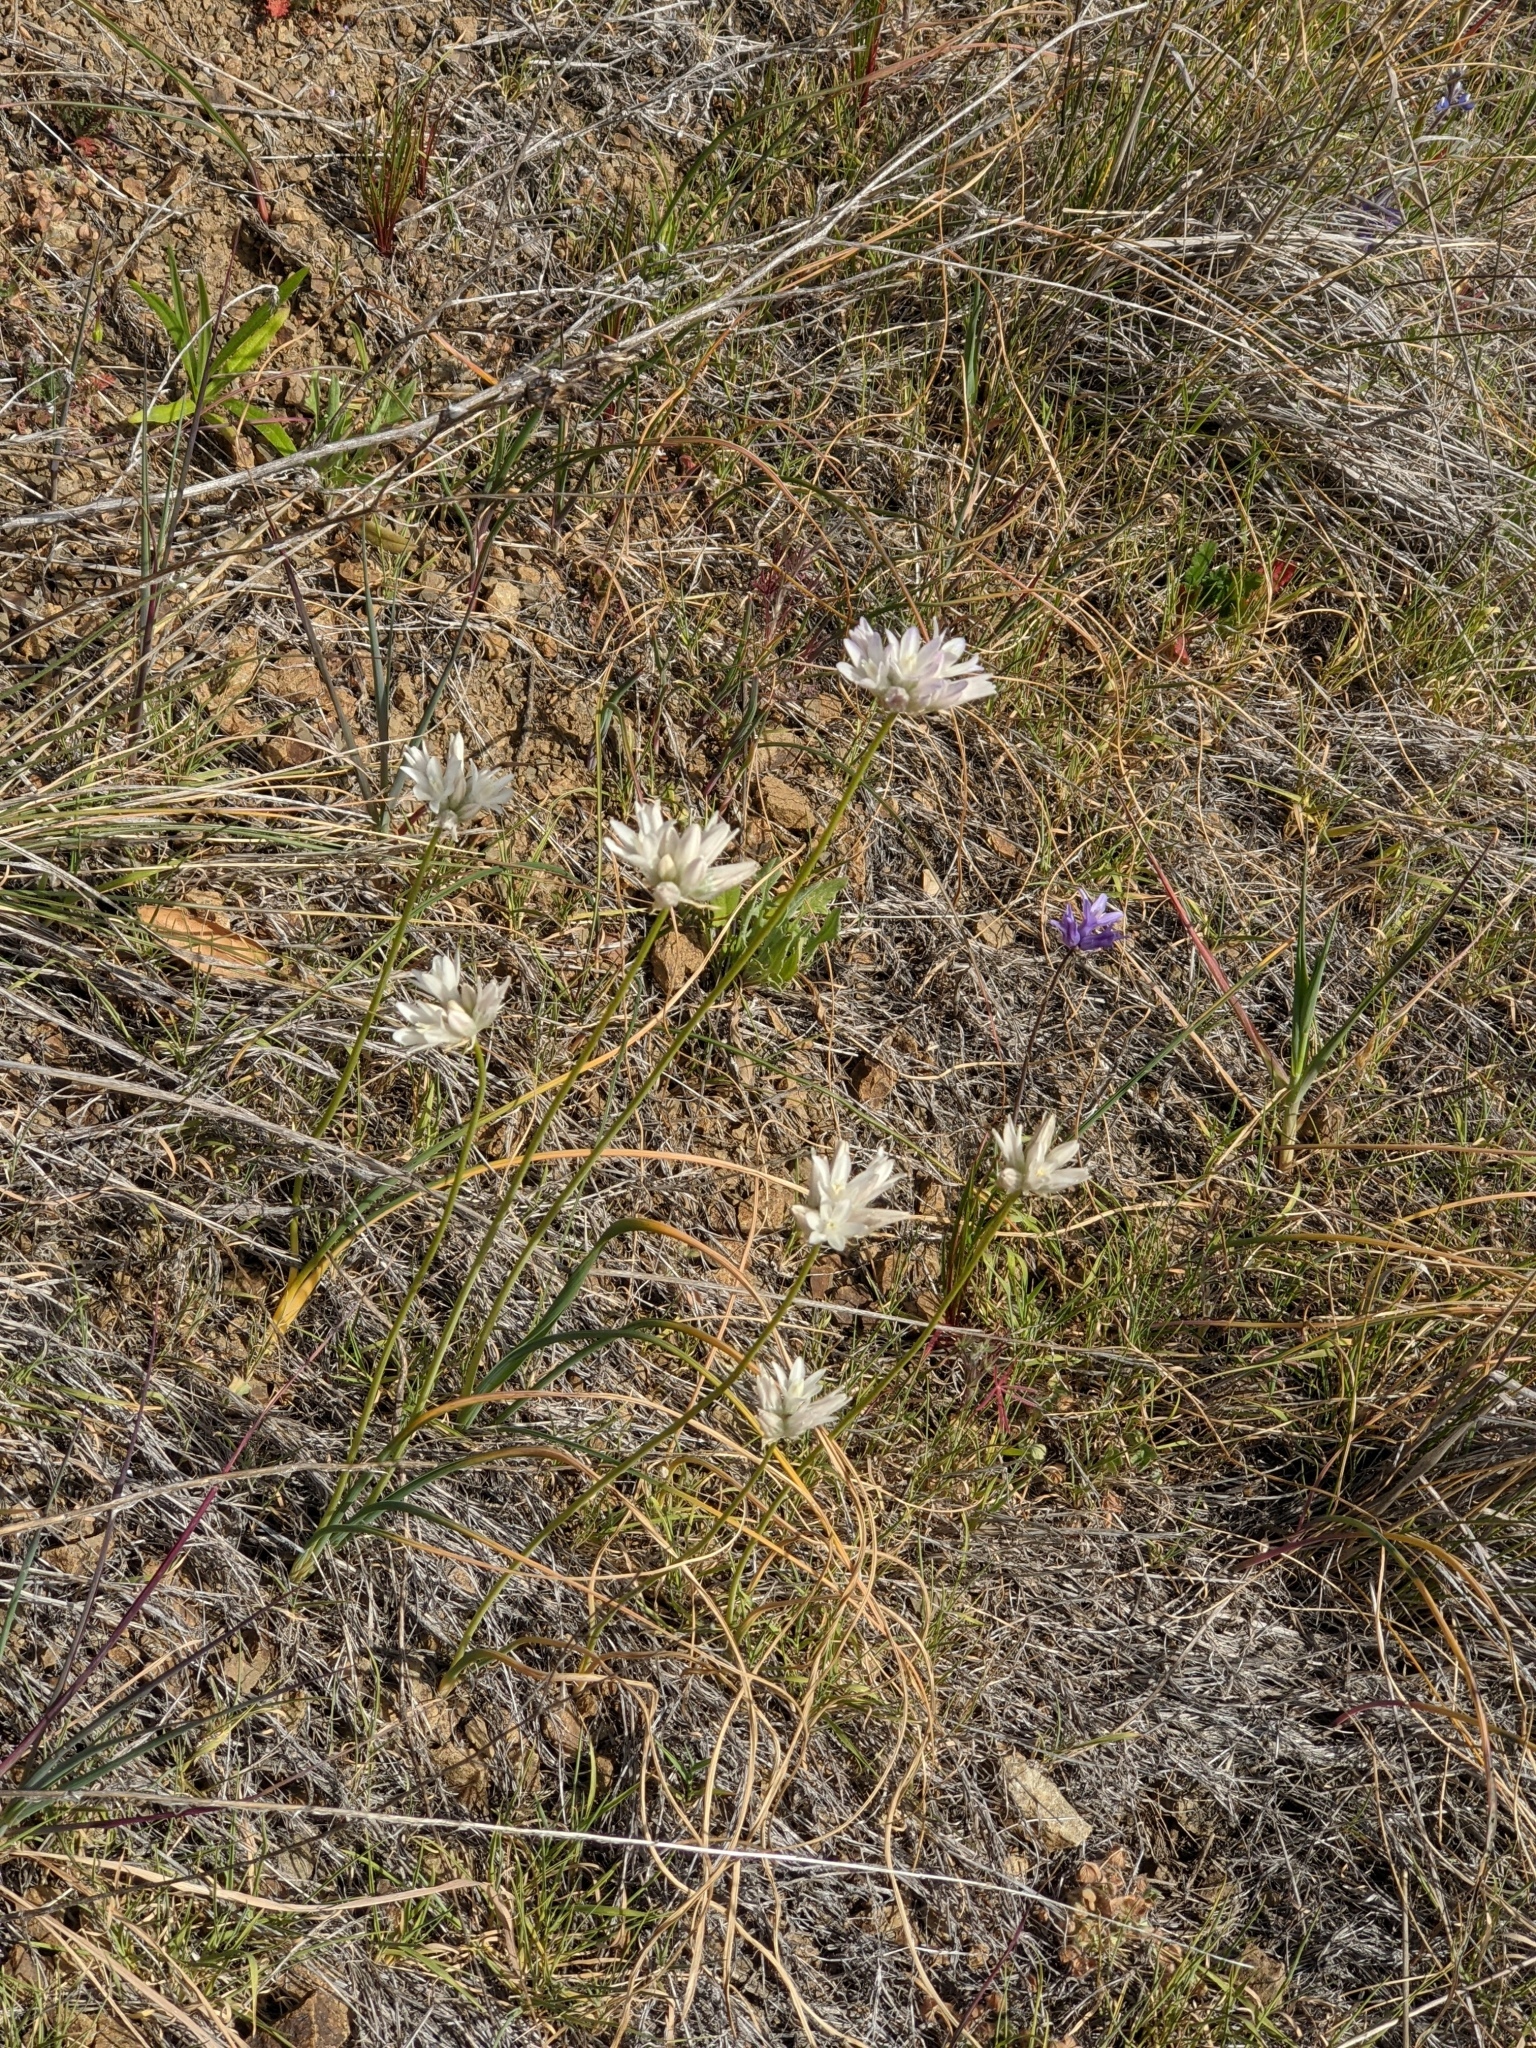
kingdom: Plantae
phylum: Tracheophyta
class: Liliopsida
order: Asparagales
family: Asparagaceae
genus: Dipterostemon
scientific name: Dipterostemon capitatus
